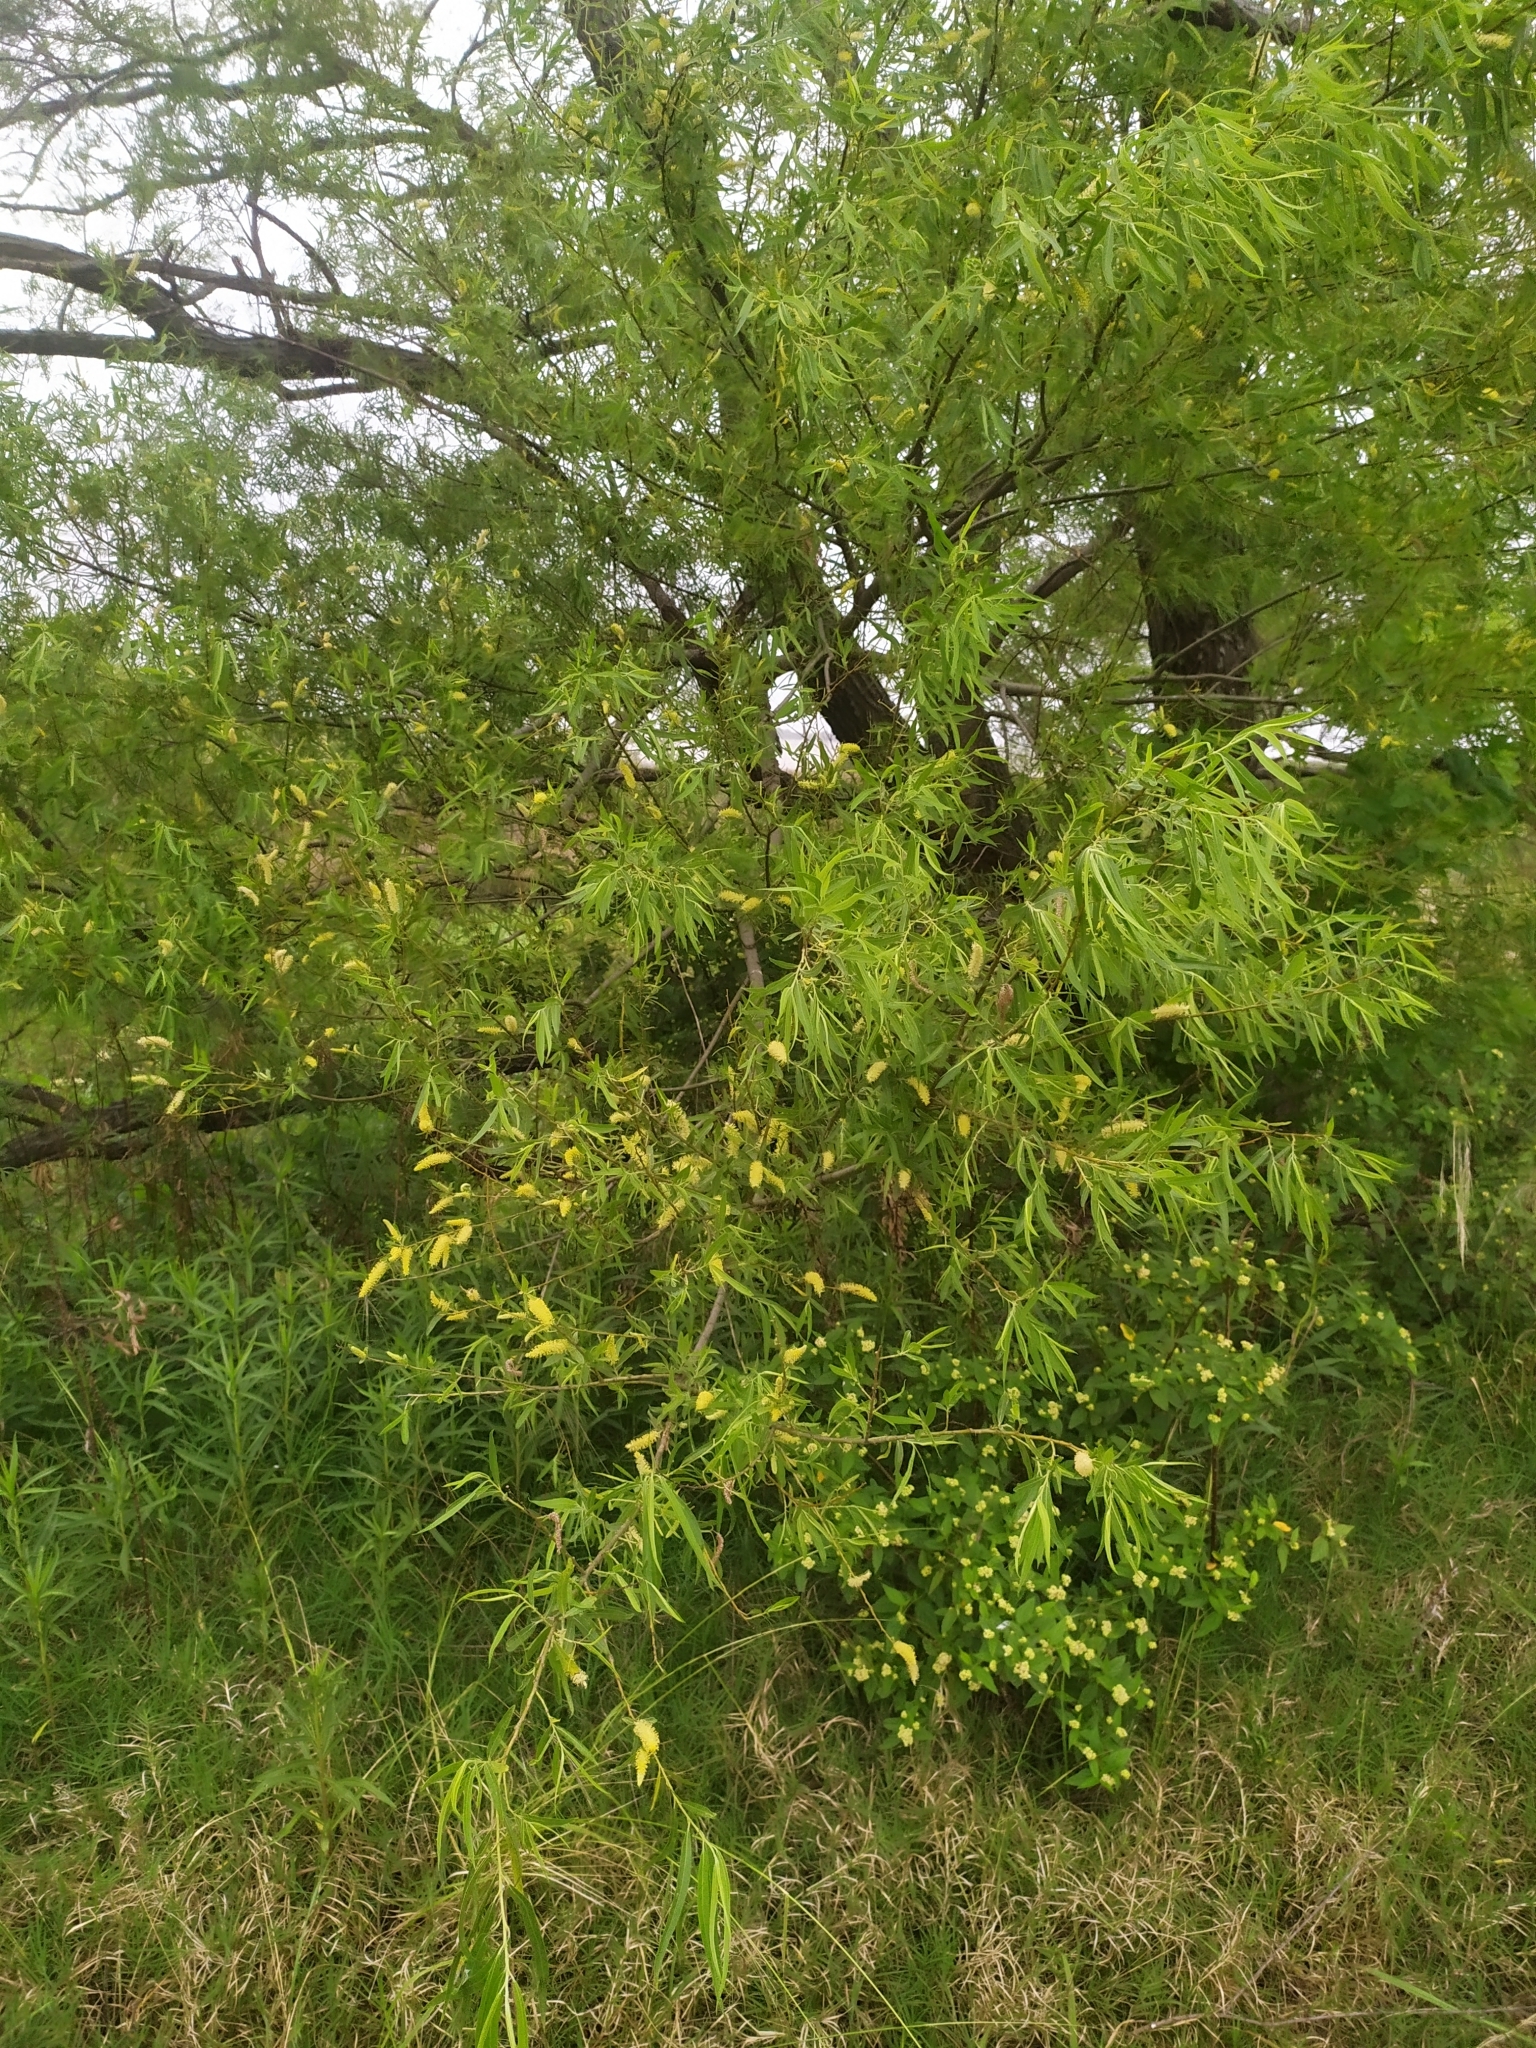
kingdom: Plantae
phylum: Tracheophyta
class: Magnoliopsida
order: Malpighiales
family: Salicaceae
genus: Salix
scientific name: Salix humboldtiana
